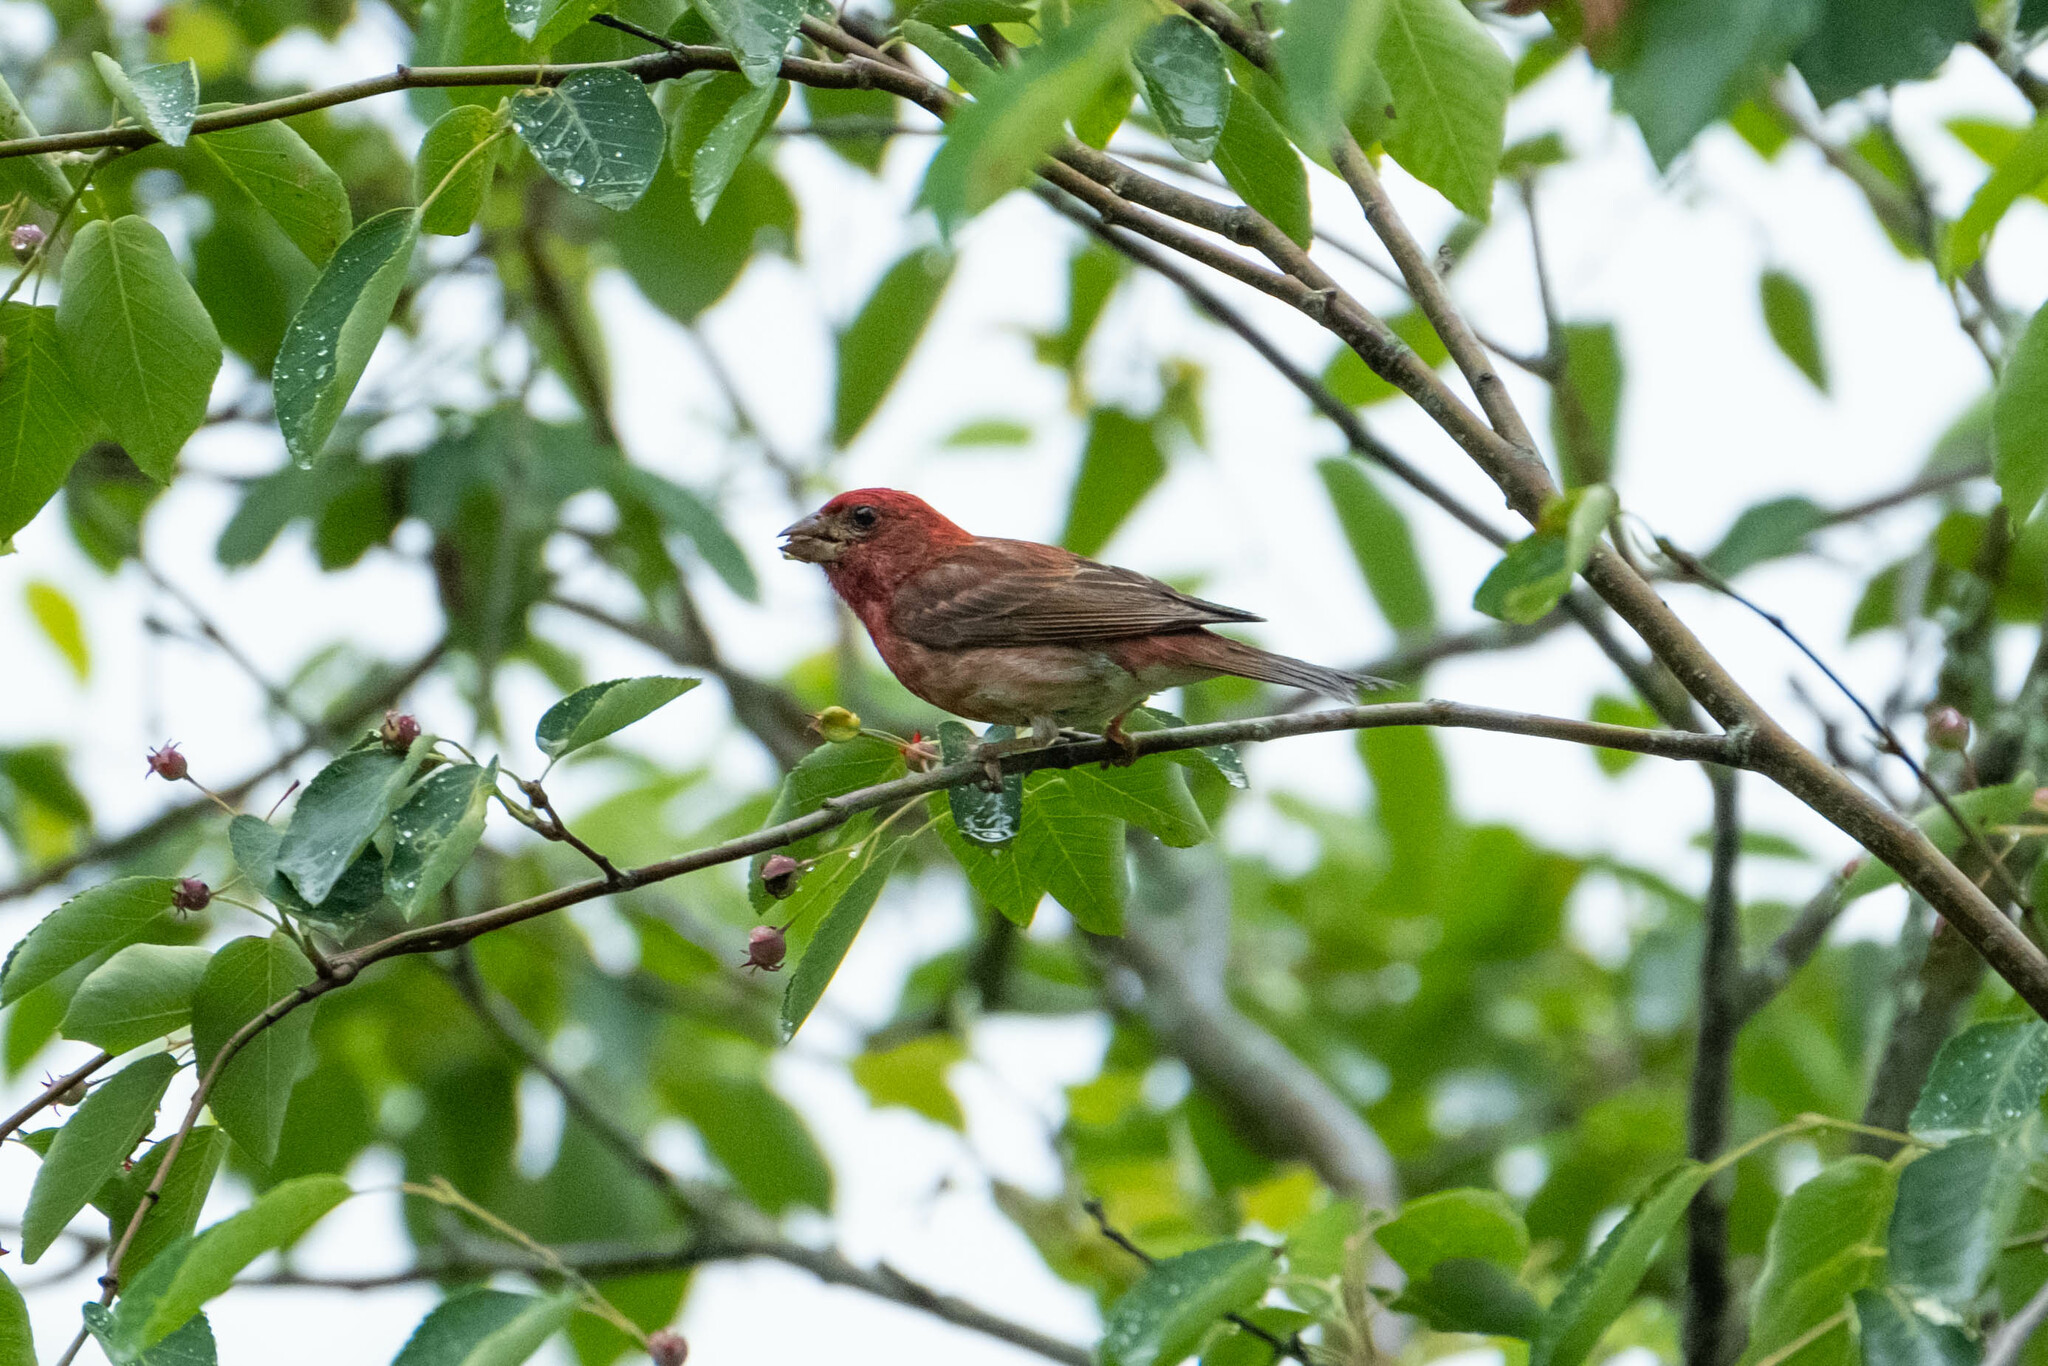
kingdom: Animalia
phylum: Chordata
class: Aves
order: Passeriformes
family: Fringillidae
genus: Haemorhous
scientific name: Haemorhous purpureus
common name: Purple finch
